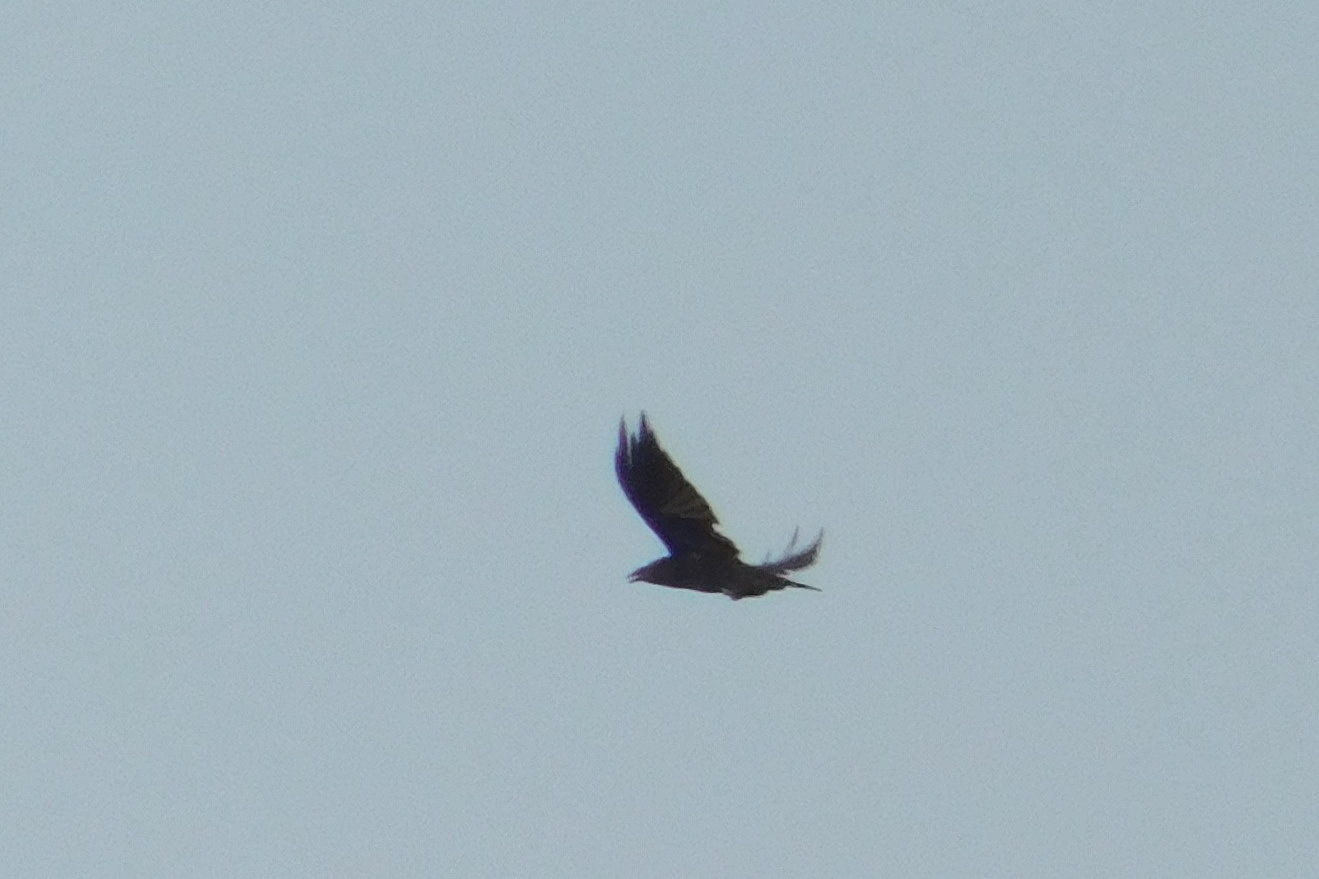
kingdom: Animalia
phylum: Chordata
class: Aves
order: Passeriformes
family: Corvidae
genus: Corvus
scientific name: Corvus corax
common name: Common raven
